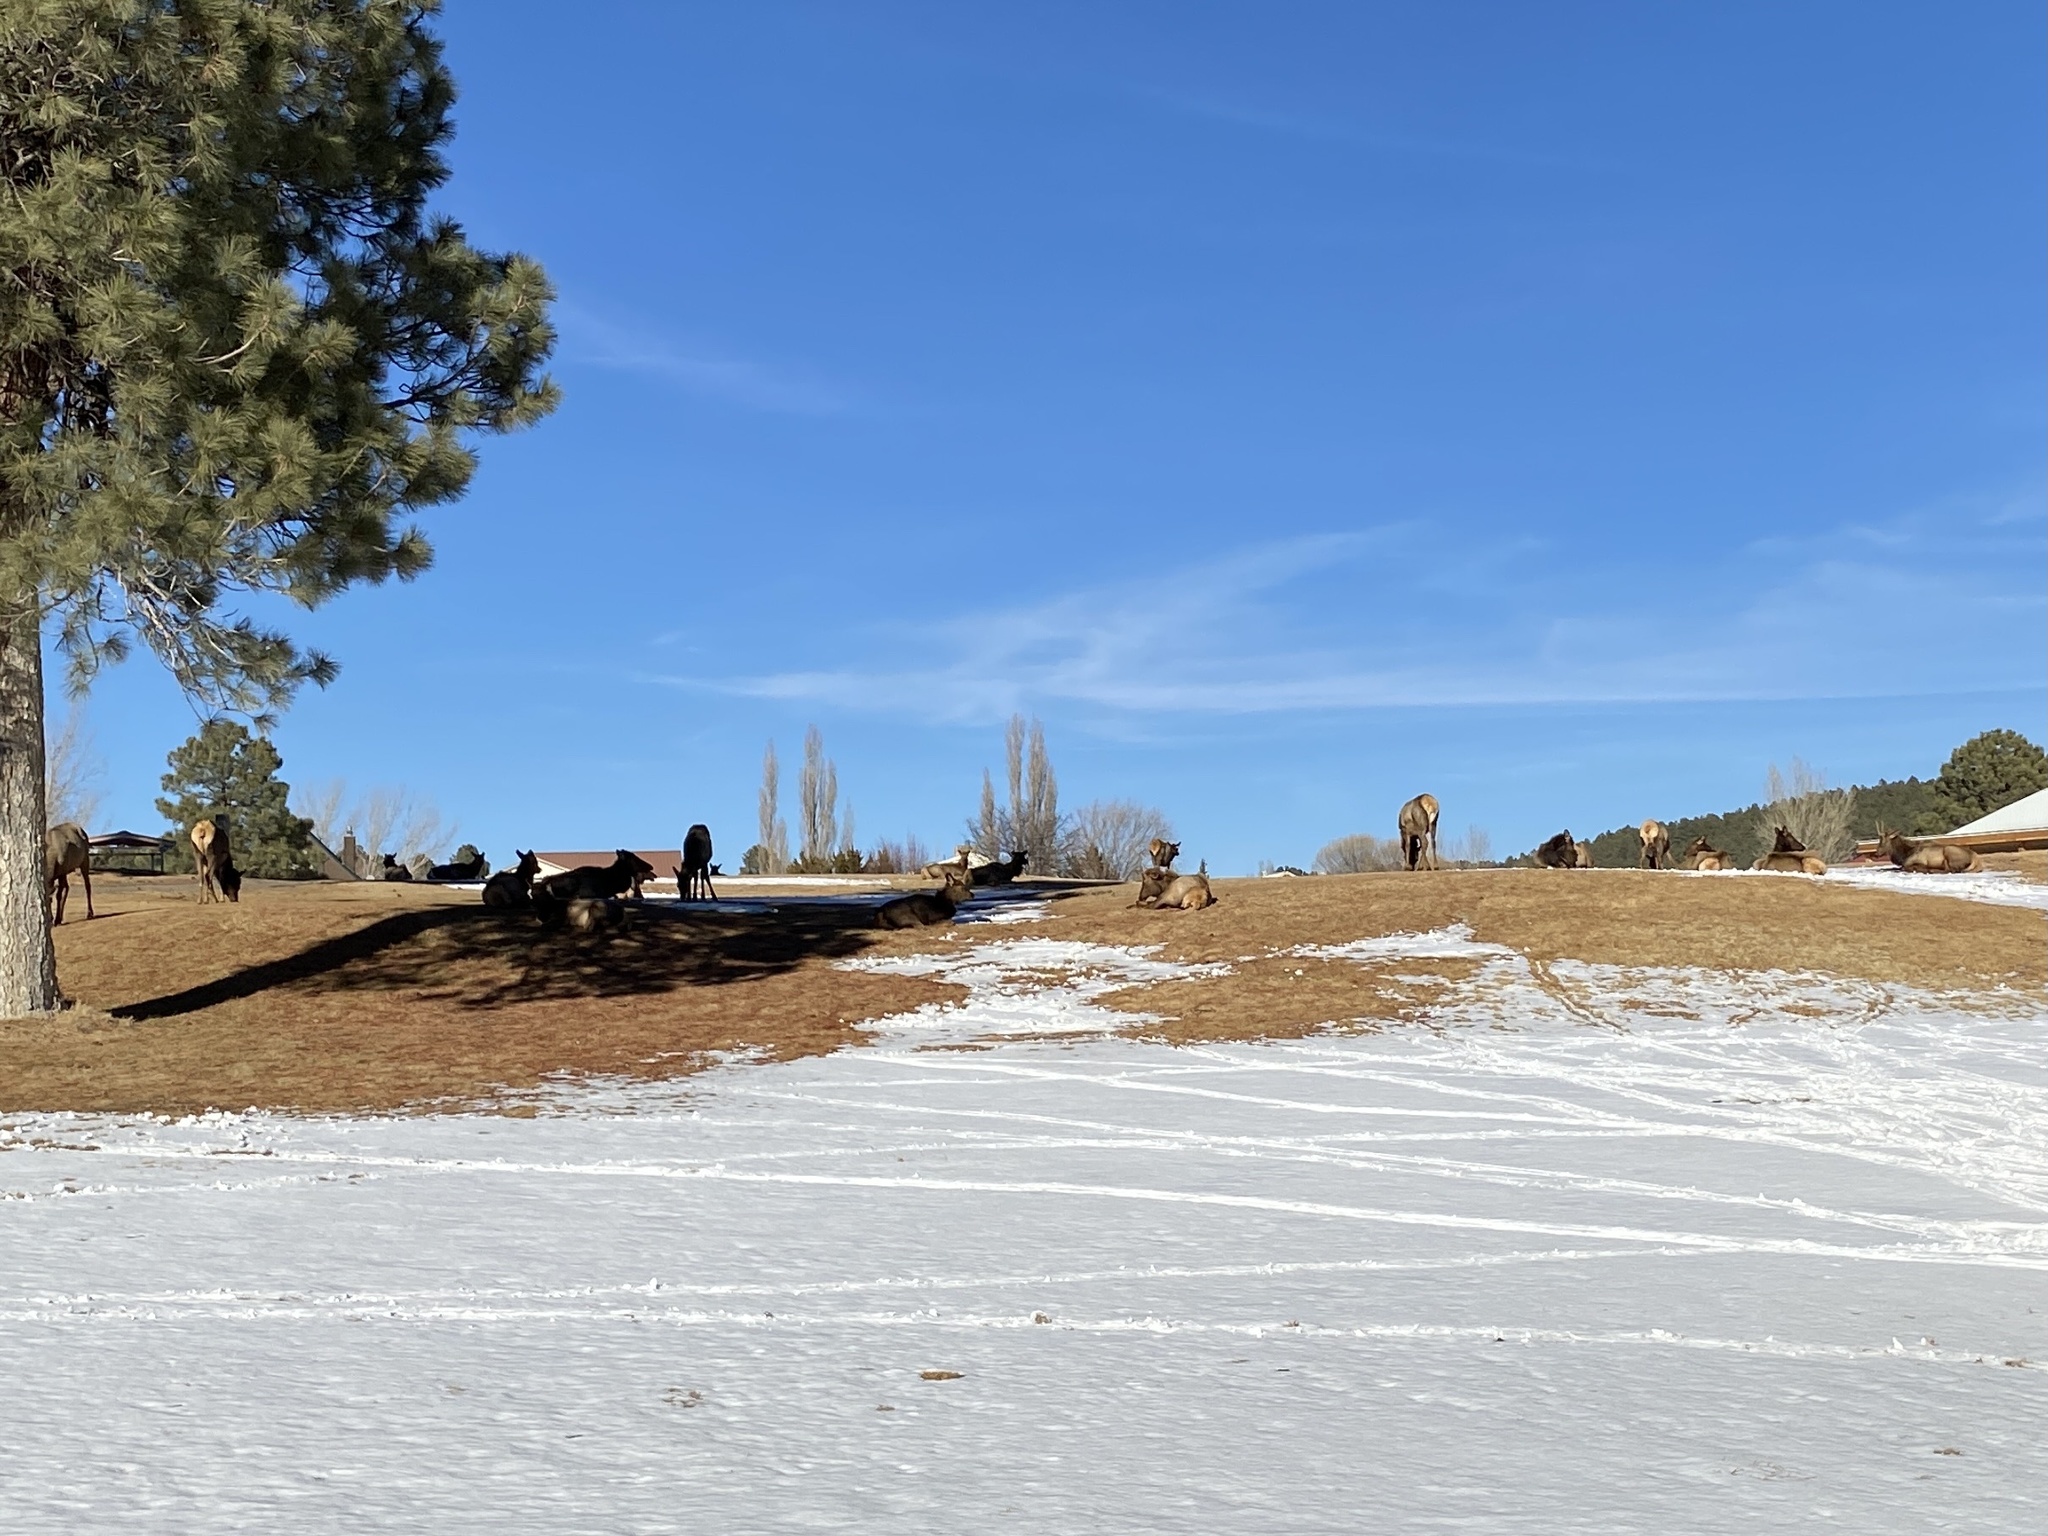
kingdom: Animalia
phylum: Chordata
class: Mammalia
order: Artiodactyla
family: Cervidae
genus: Cervus
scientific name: Cervus elaphus
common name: Red deer
